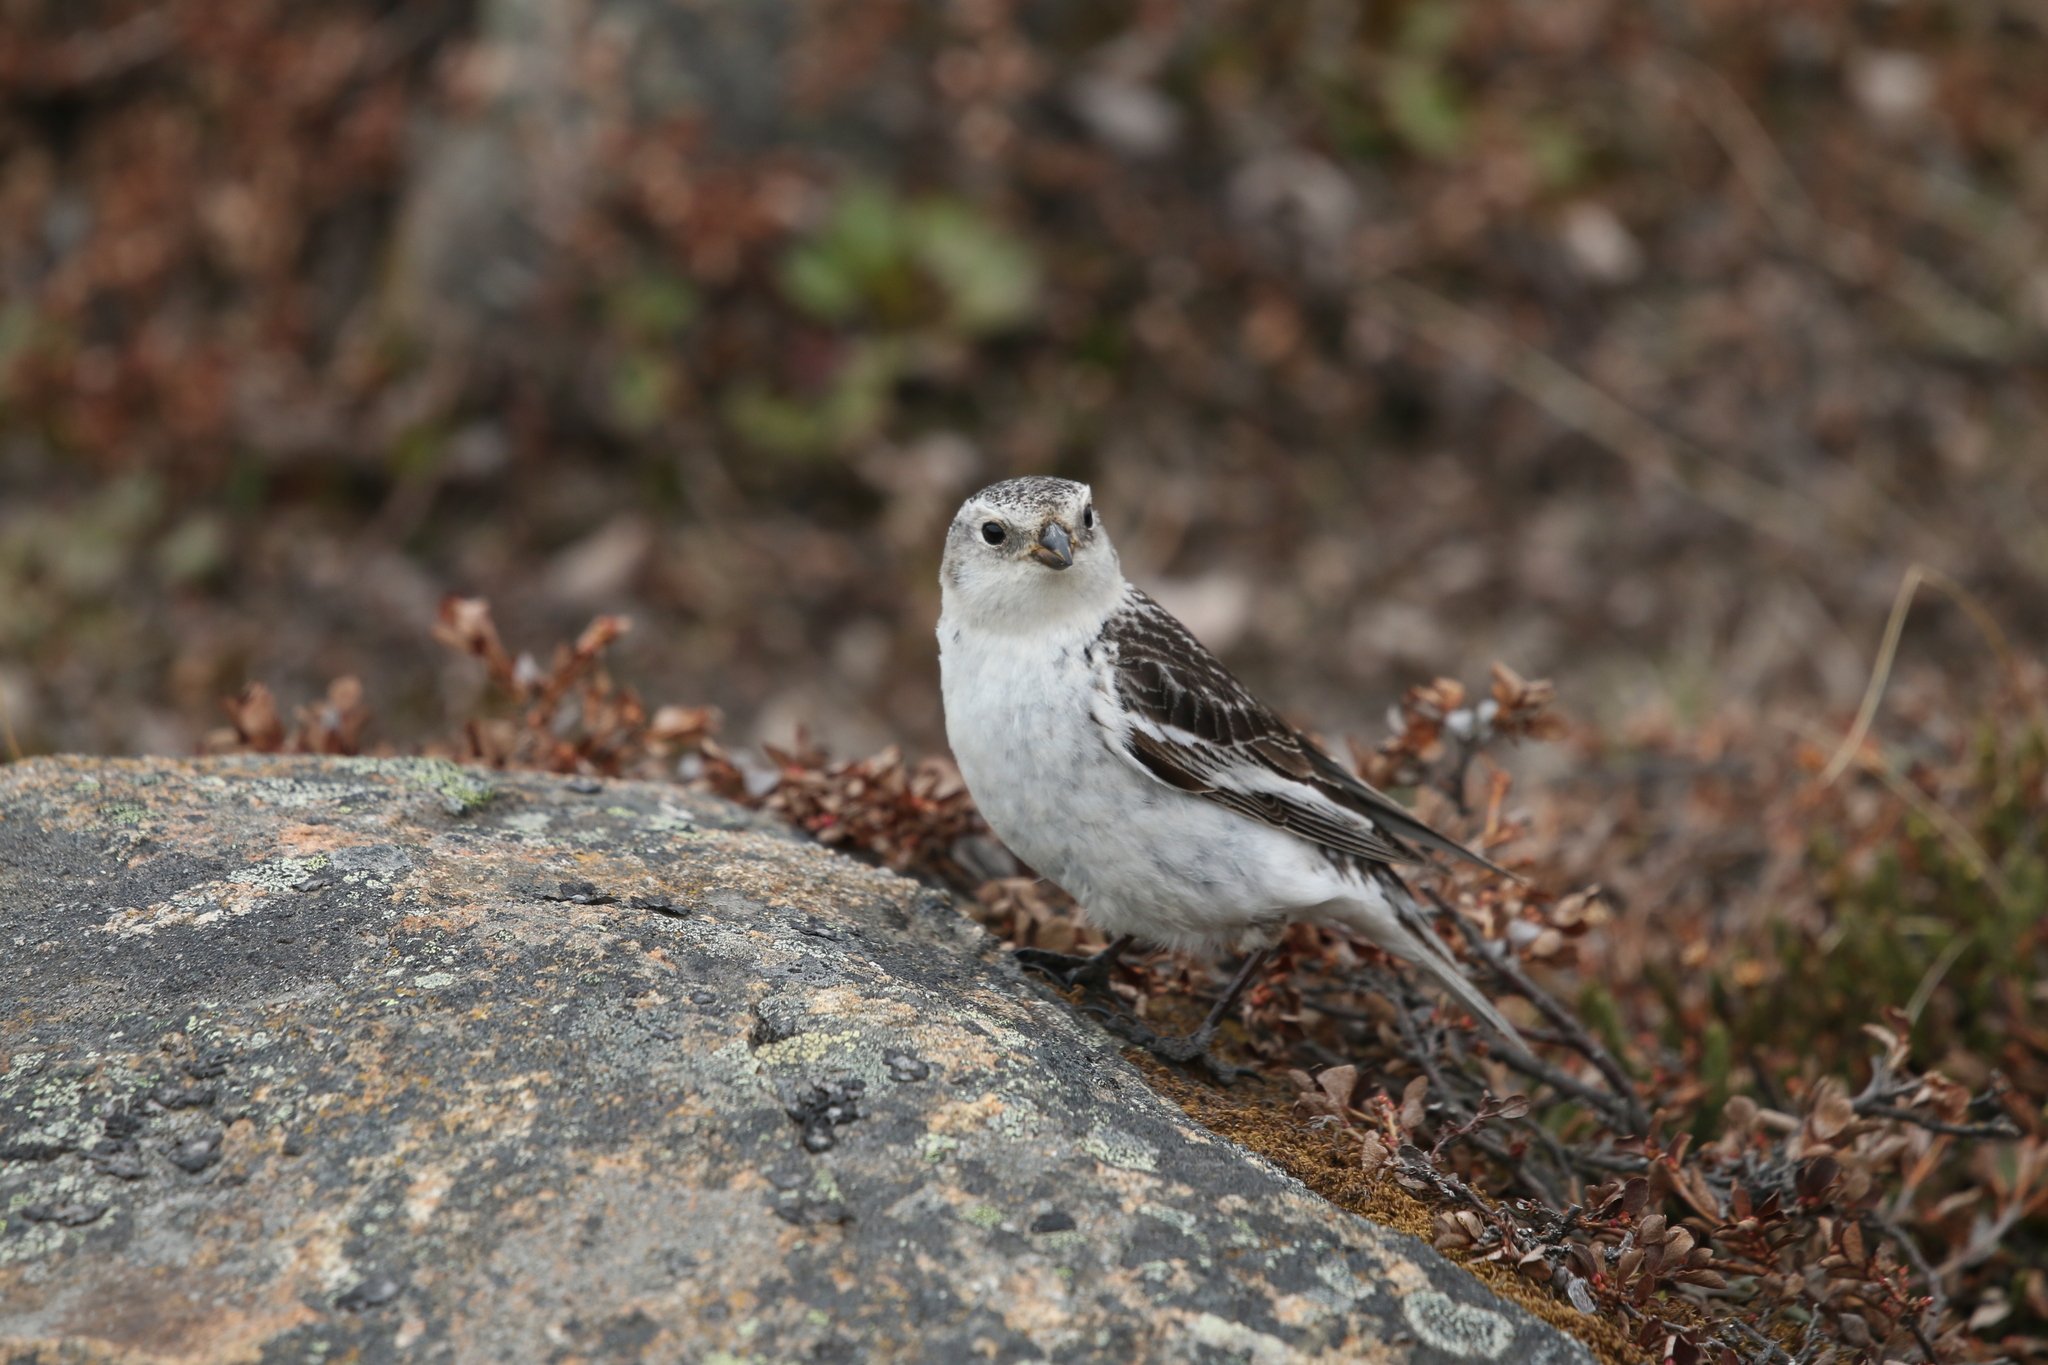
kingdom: Animalia
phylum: Chordata
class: Aves
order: Passeriformes
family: Calcariidae
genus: Plectrophenax
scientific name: Plectrophenax nivalis
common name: Snow bunting
